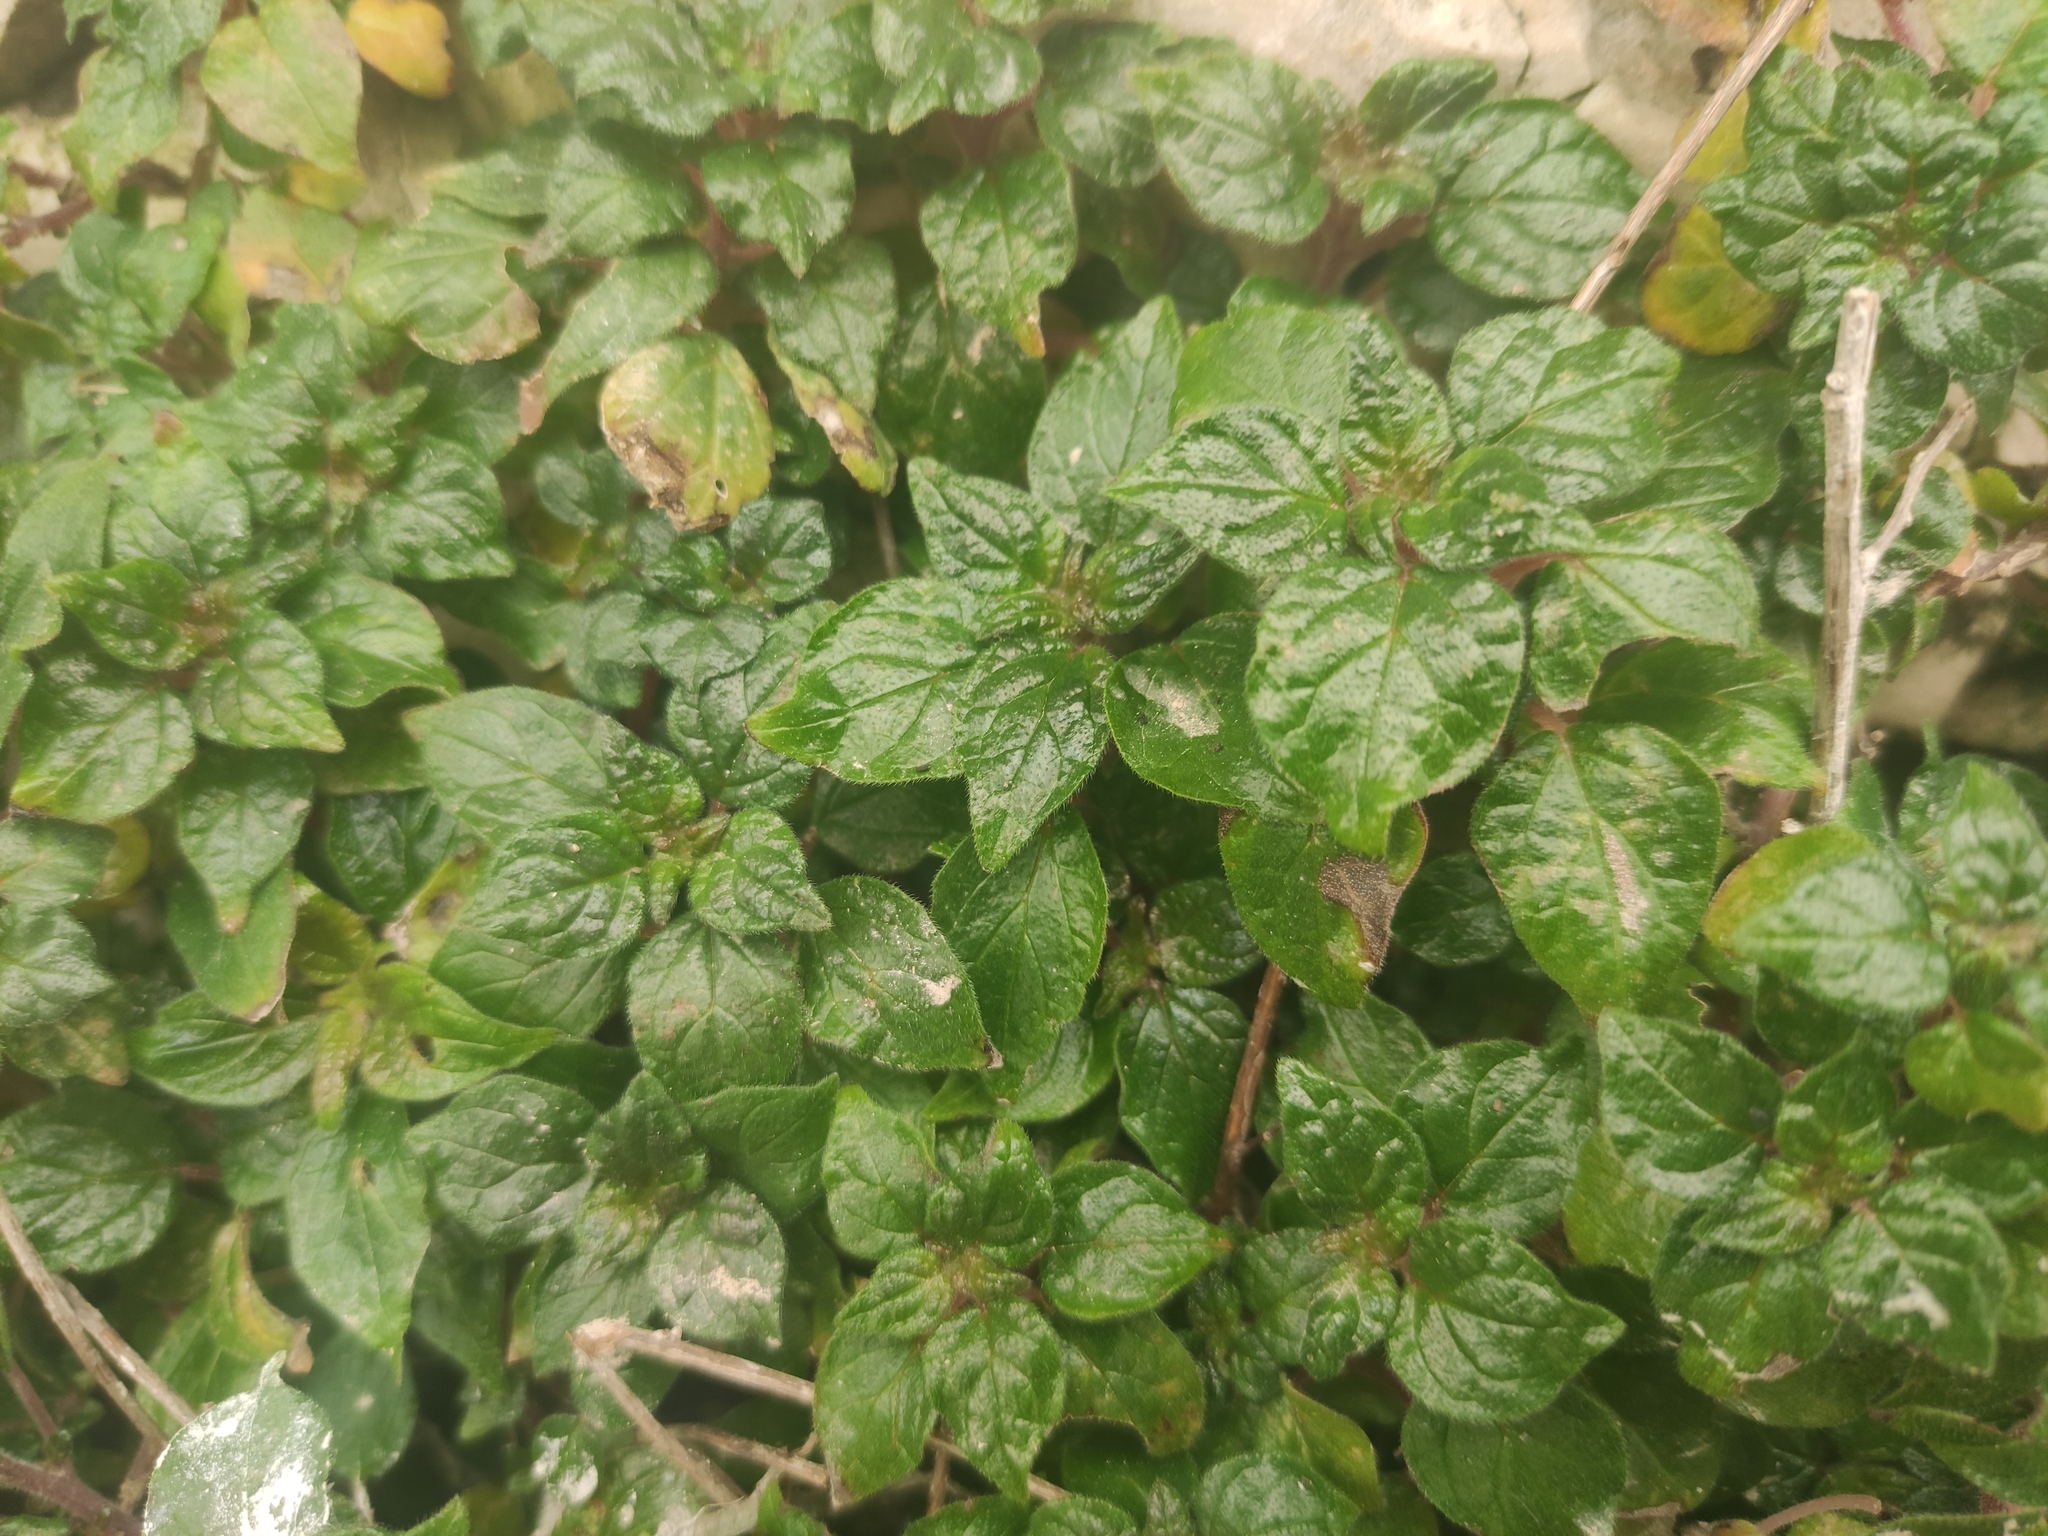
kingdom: Plantae
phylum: Tracheophyta
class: Magnoliopsida
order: Rosales
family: Urticaceae
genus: Parietaria
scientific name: Parietaria judaica
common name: Pellitory-of-the-wall
